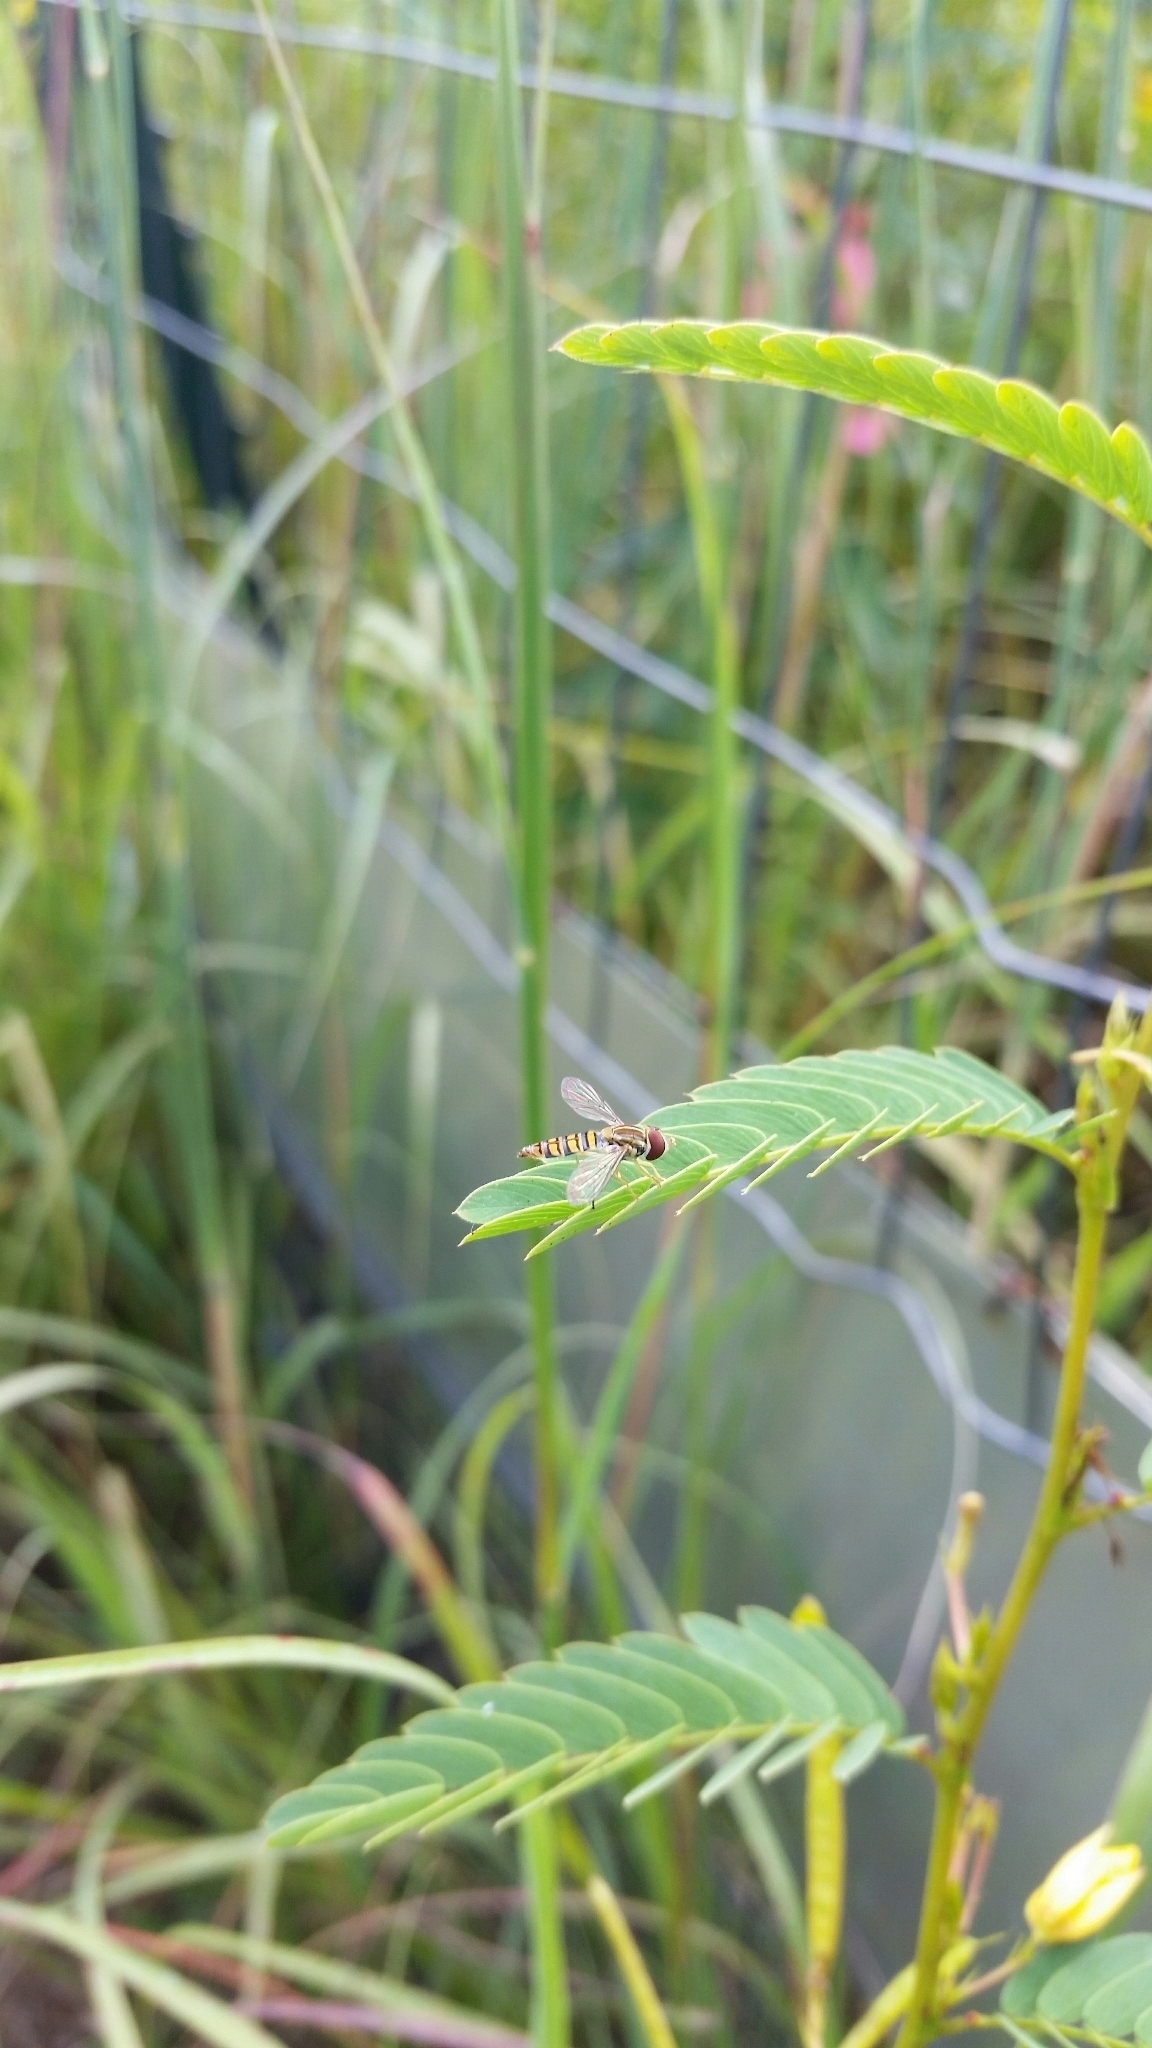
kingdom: Animalia
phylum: Arthropoda
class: Insecta
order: Diptera
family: Syrphidae
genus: Toxomerus
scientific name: Toxomerus politus
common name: Maize calligrapher
